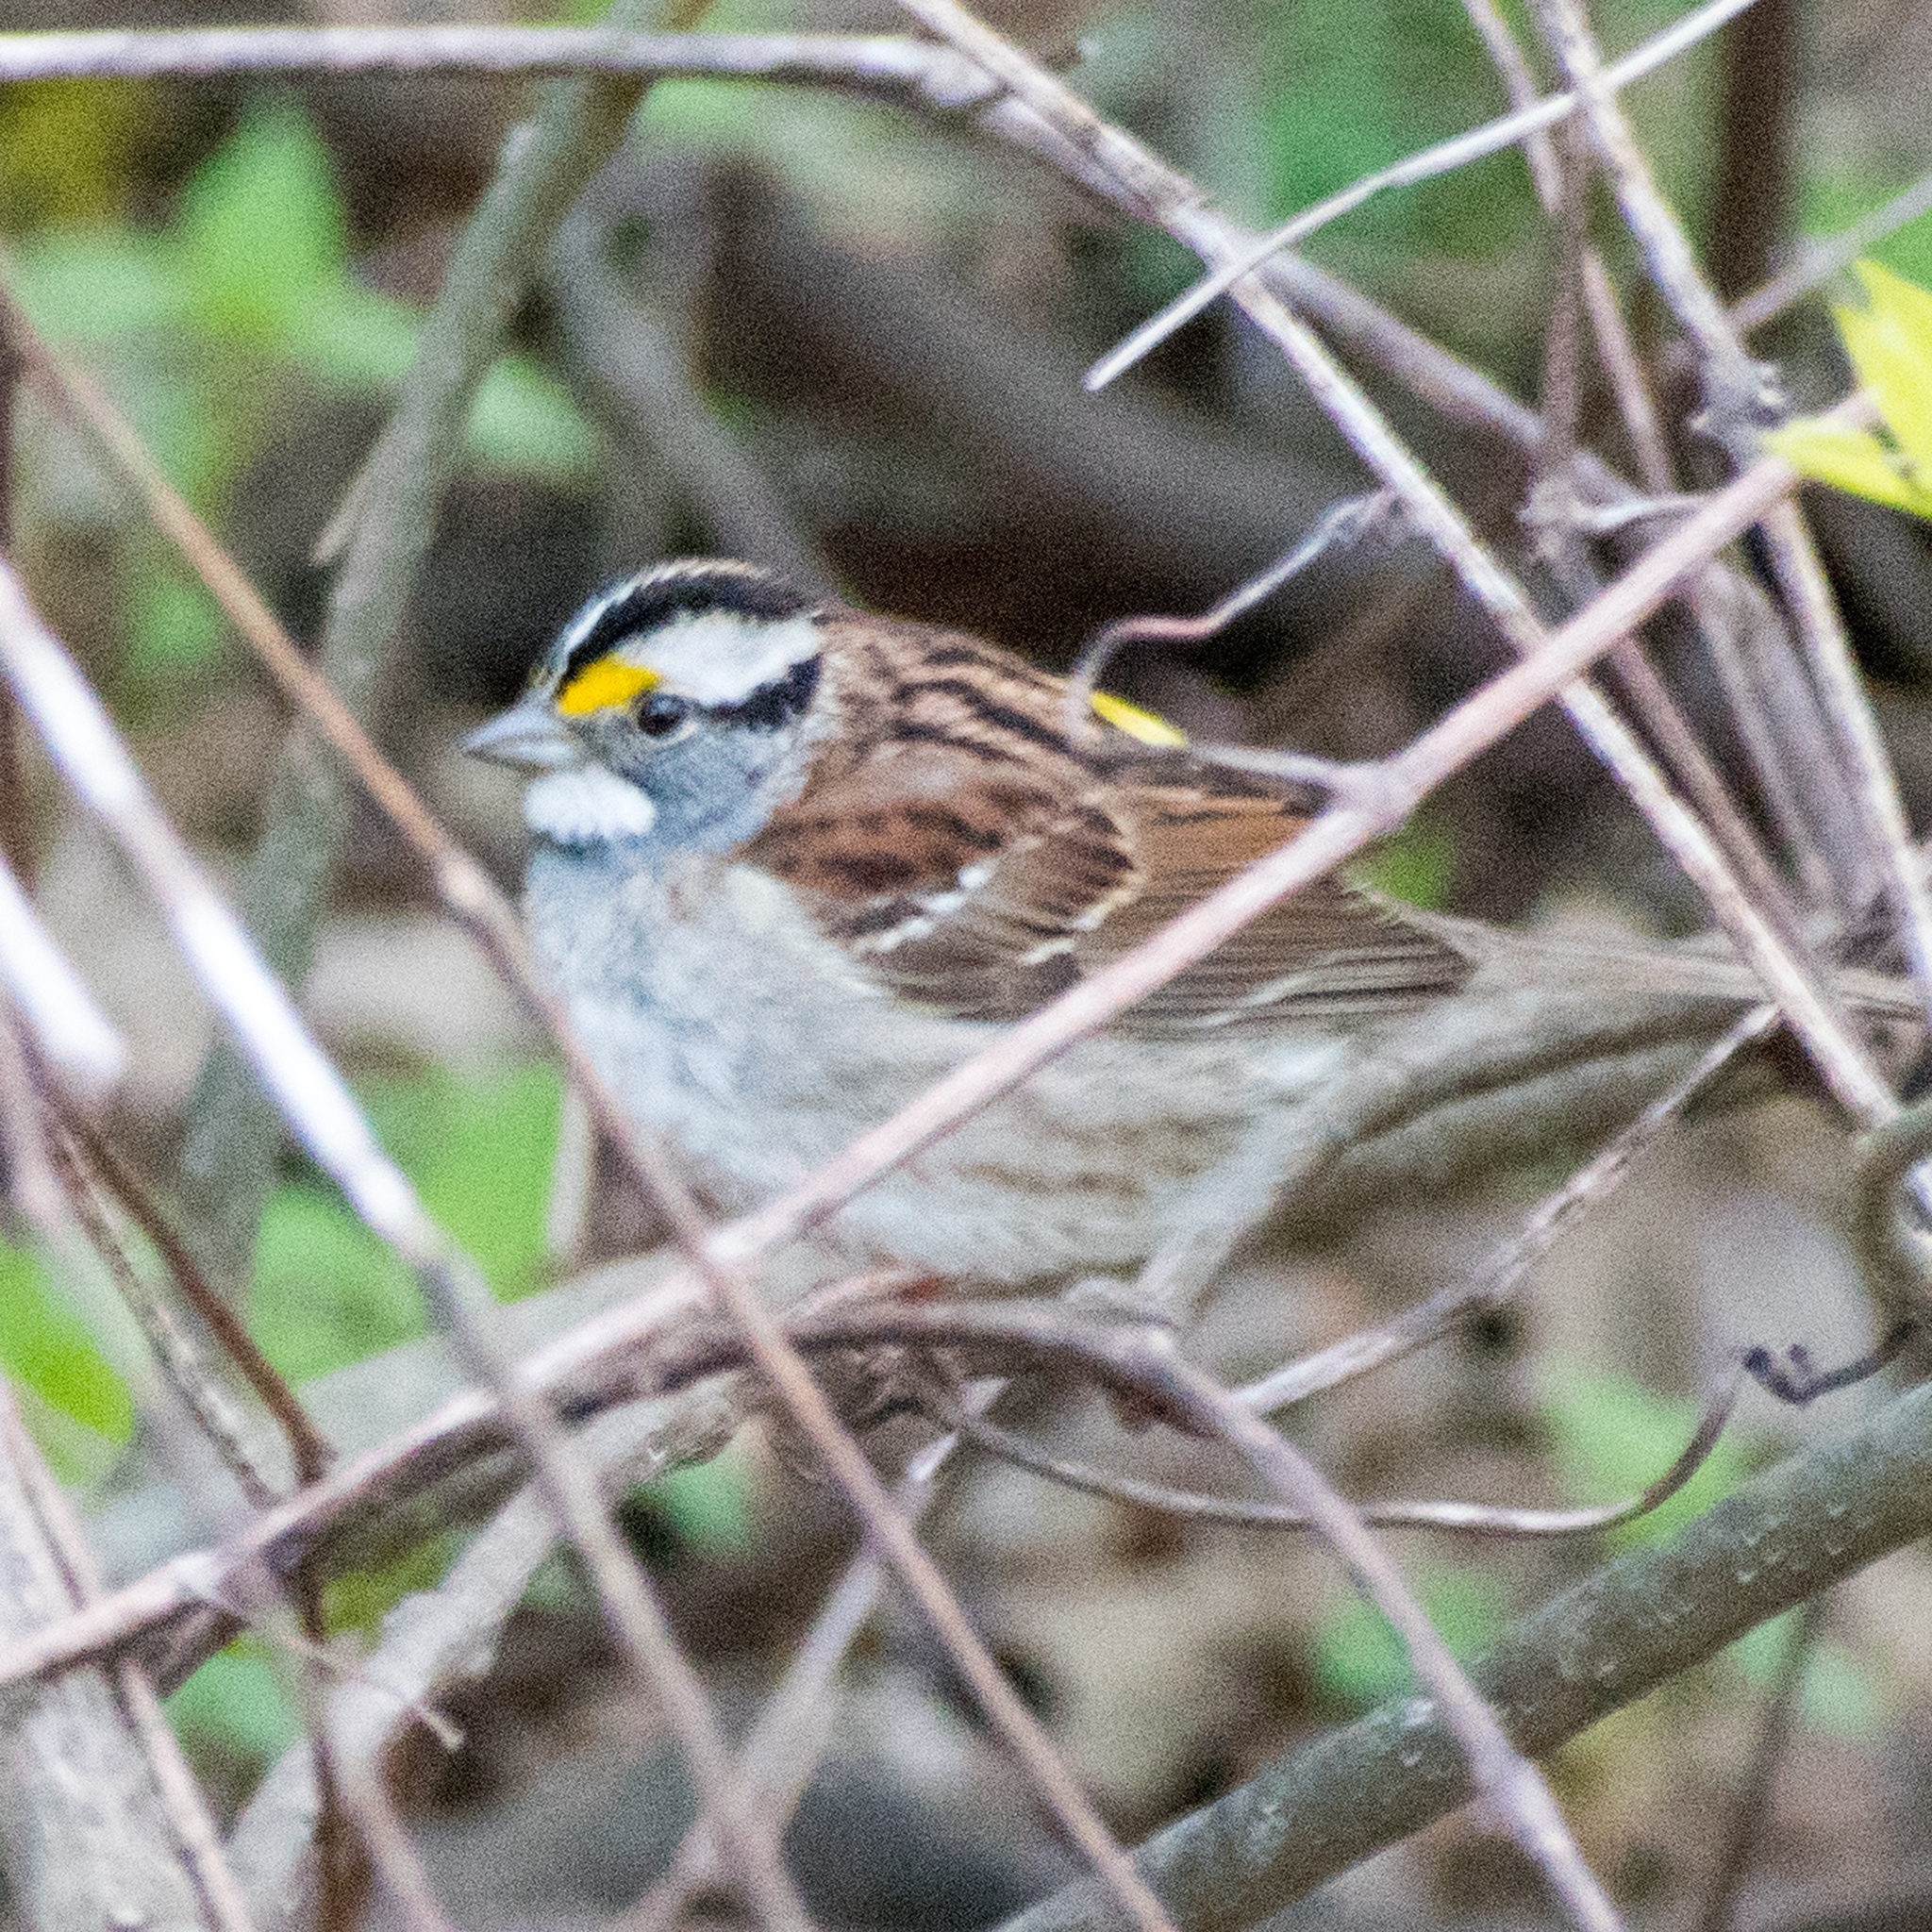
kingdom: Animalia
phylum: Chordata
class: Aves
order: Passeriformes
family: Passerellidae
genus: Zonotrichia
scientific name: Zonotrichia albicollis
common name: White-throated sparrow
